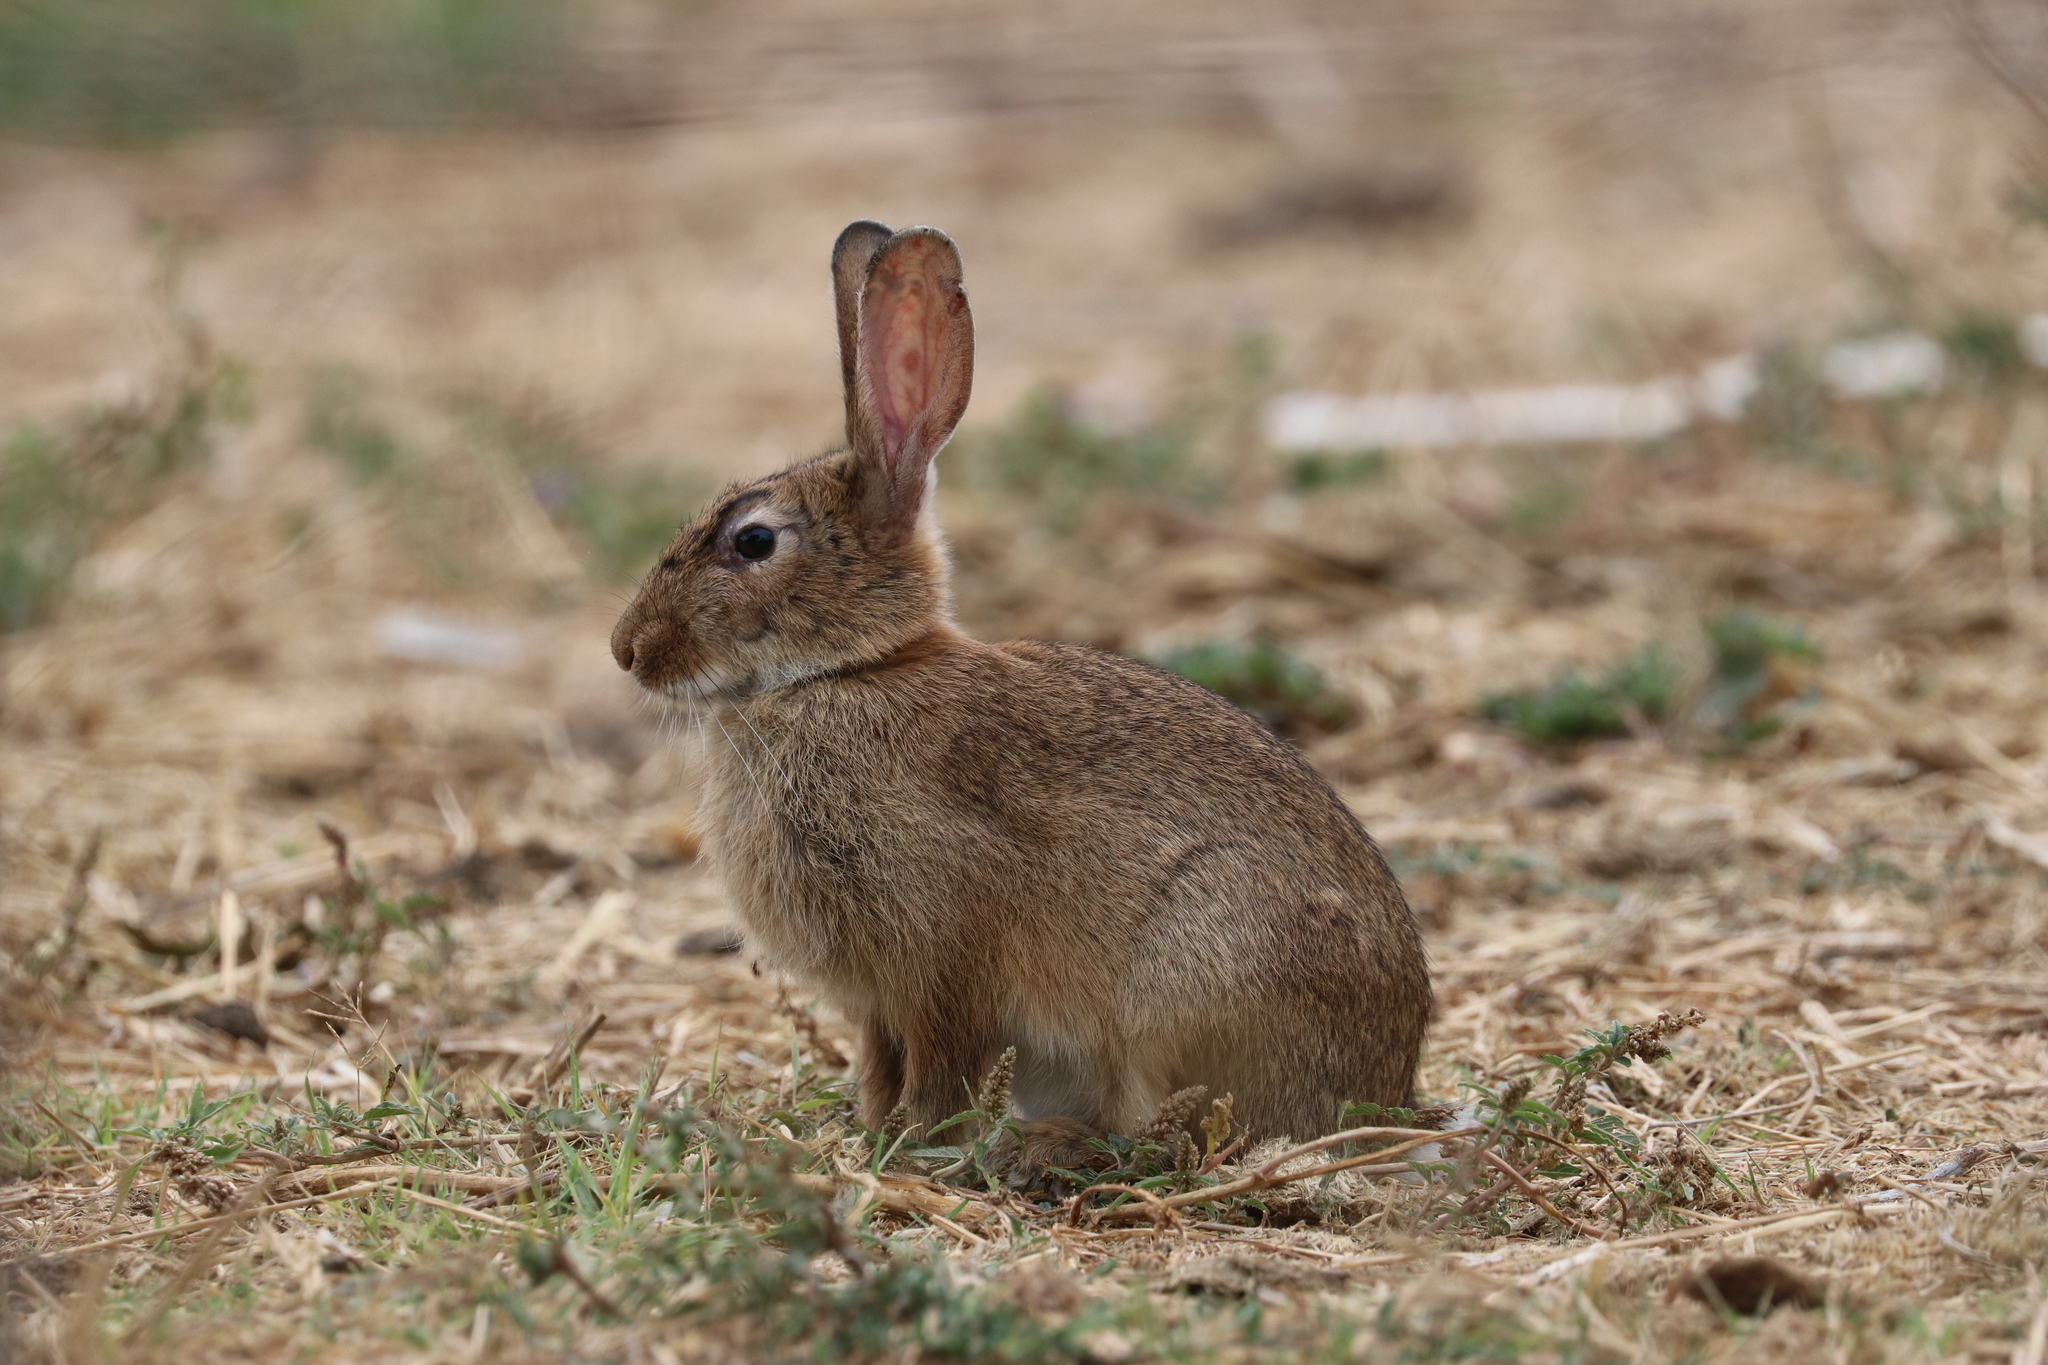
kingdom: Animalia
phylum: Chordata
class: Mammalia
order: Lagomorpha
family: Leporidae
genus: Oryctolagus
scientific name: Oryctolagus cuniculus
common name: European rabbit
